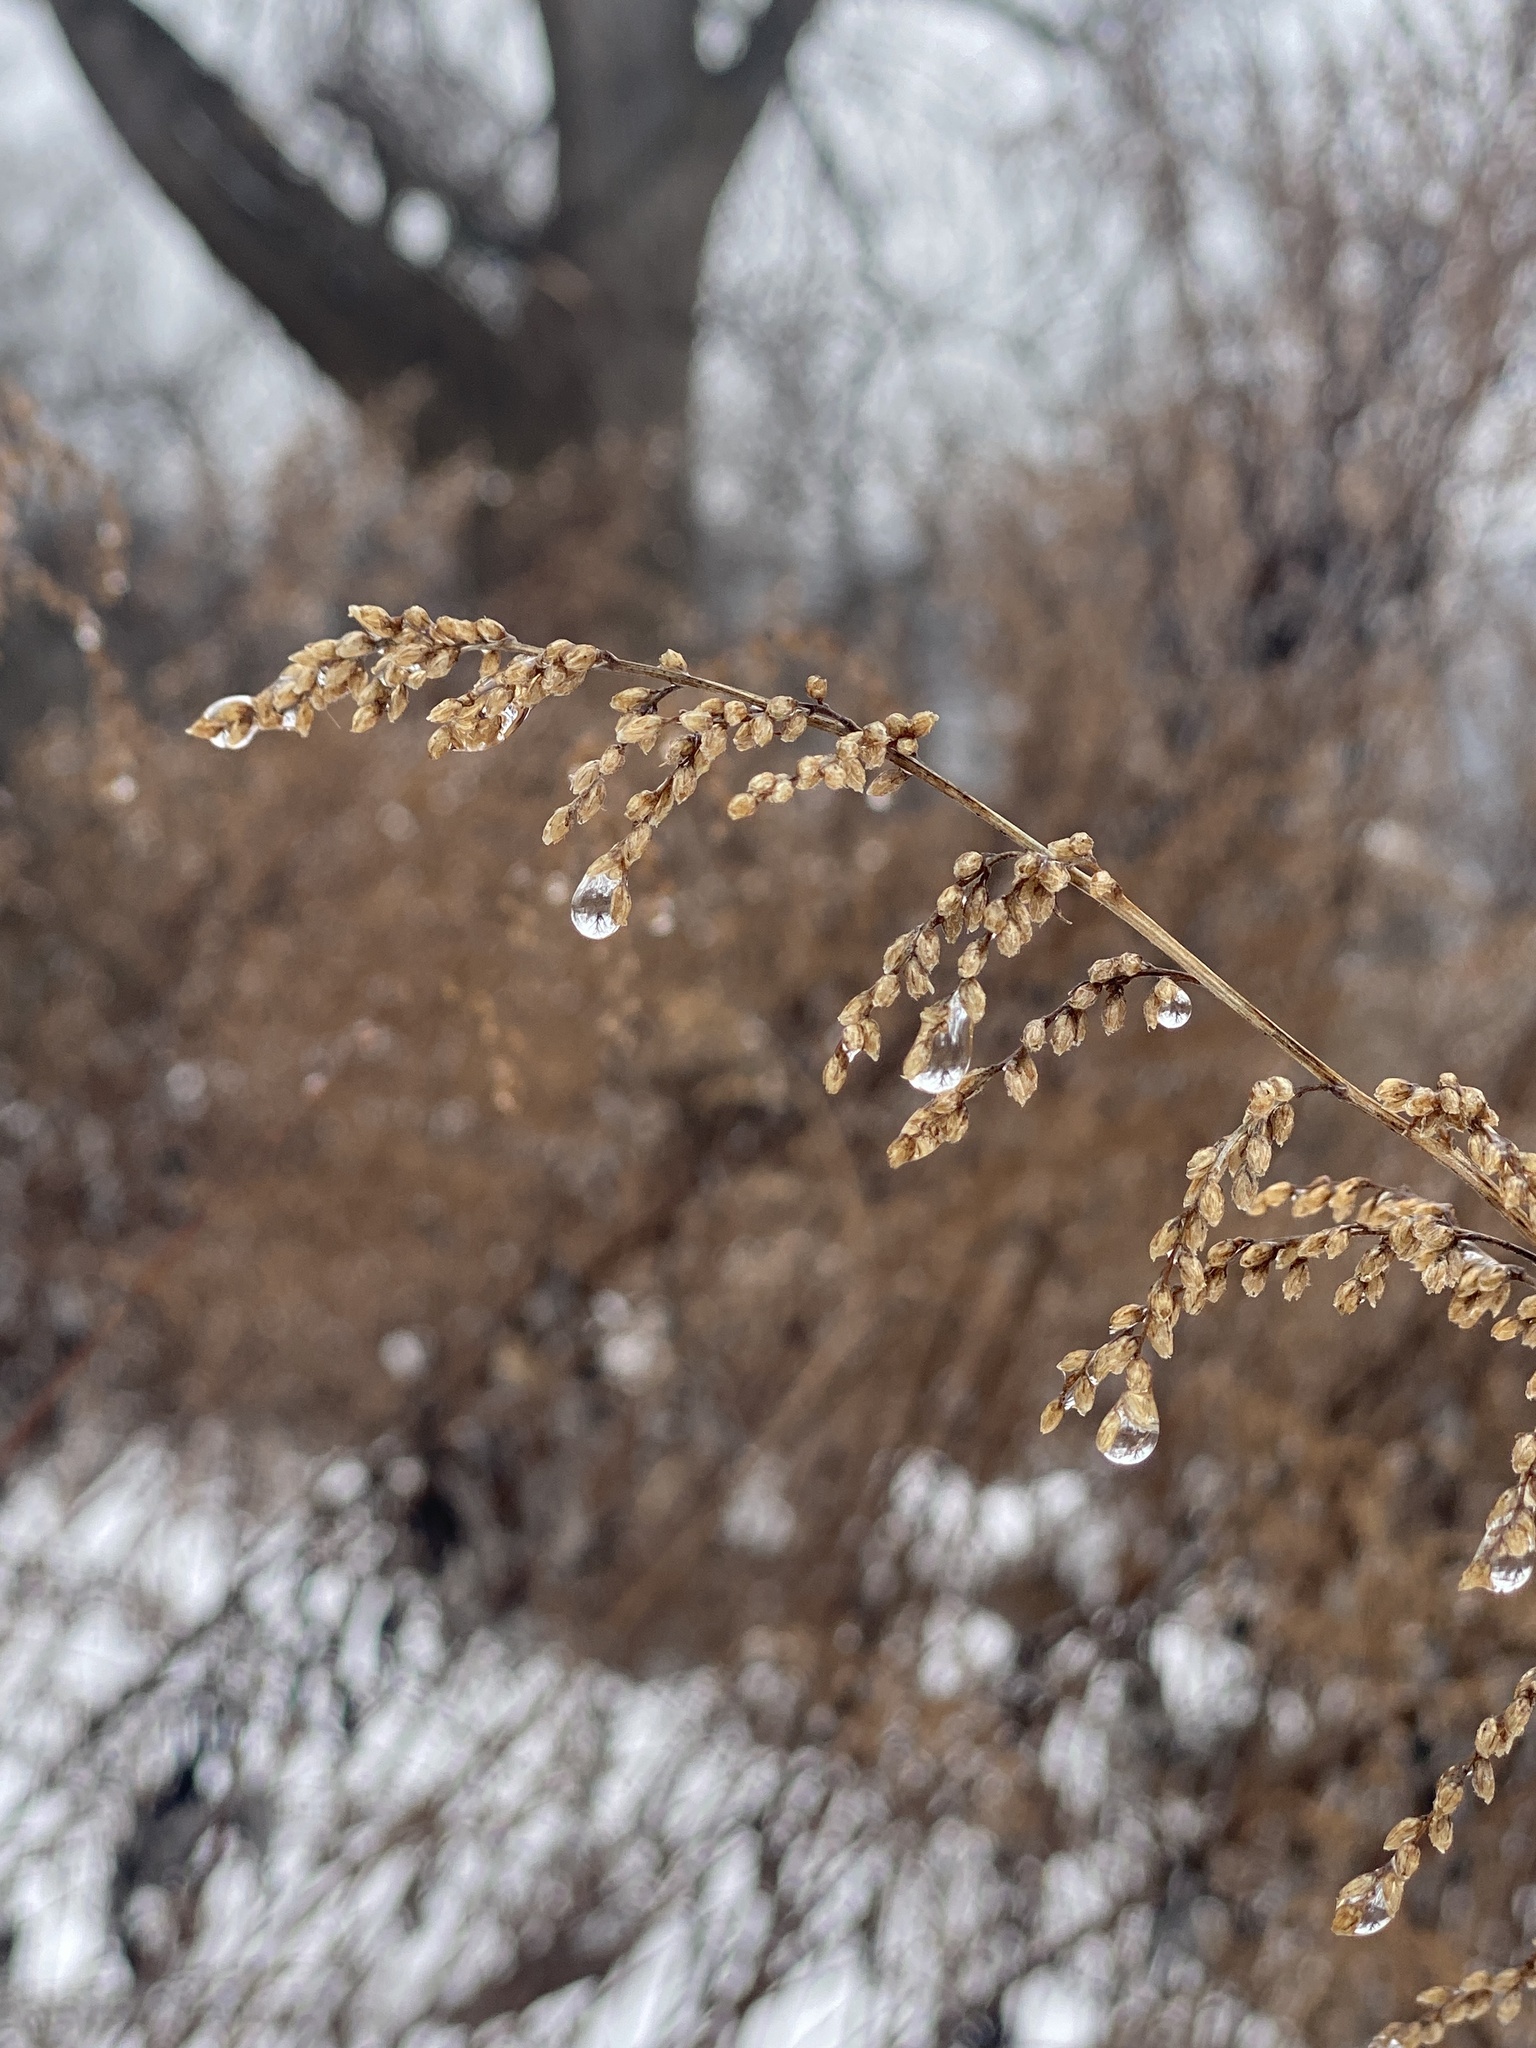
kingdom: Plantae
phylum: Tracheophyta
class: Magnoliopsida
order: Asterales
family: Asteraceae
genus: Artemisia
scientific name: Artemisia vulgaris
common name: Mugwort
